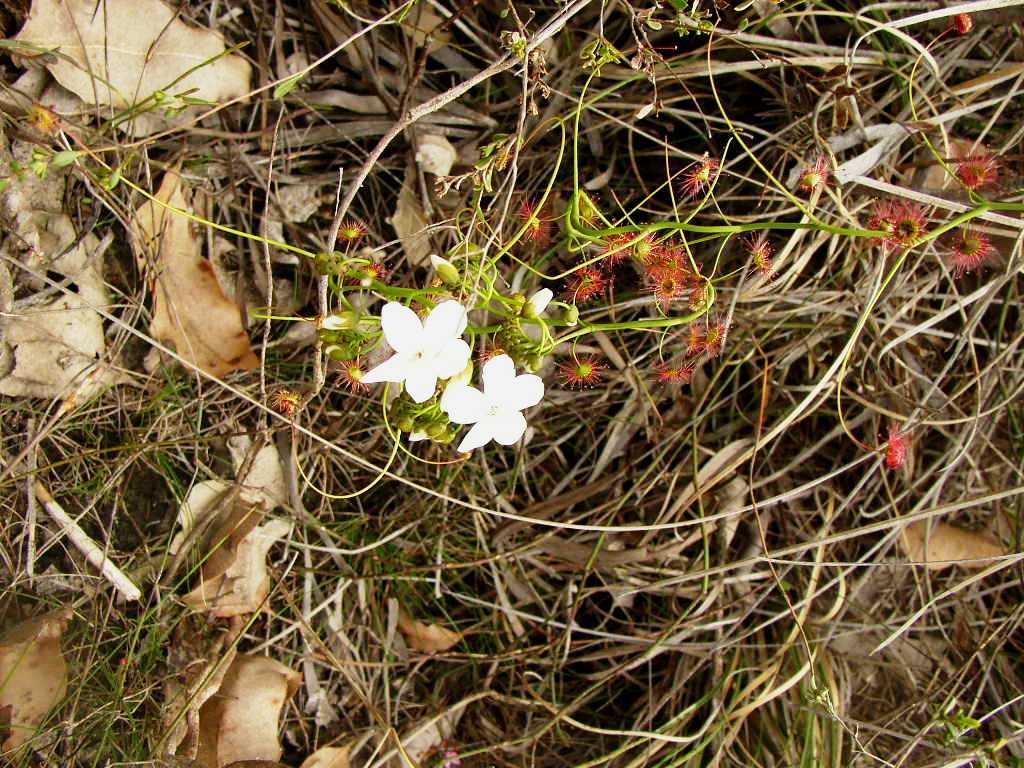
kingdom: Plantae
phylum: Tracheophyta
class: Magnoliopsida
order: Caryophyllales
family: Droseraceae
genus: Drosera
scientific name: Drosera pallida
